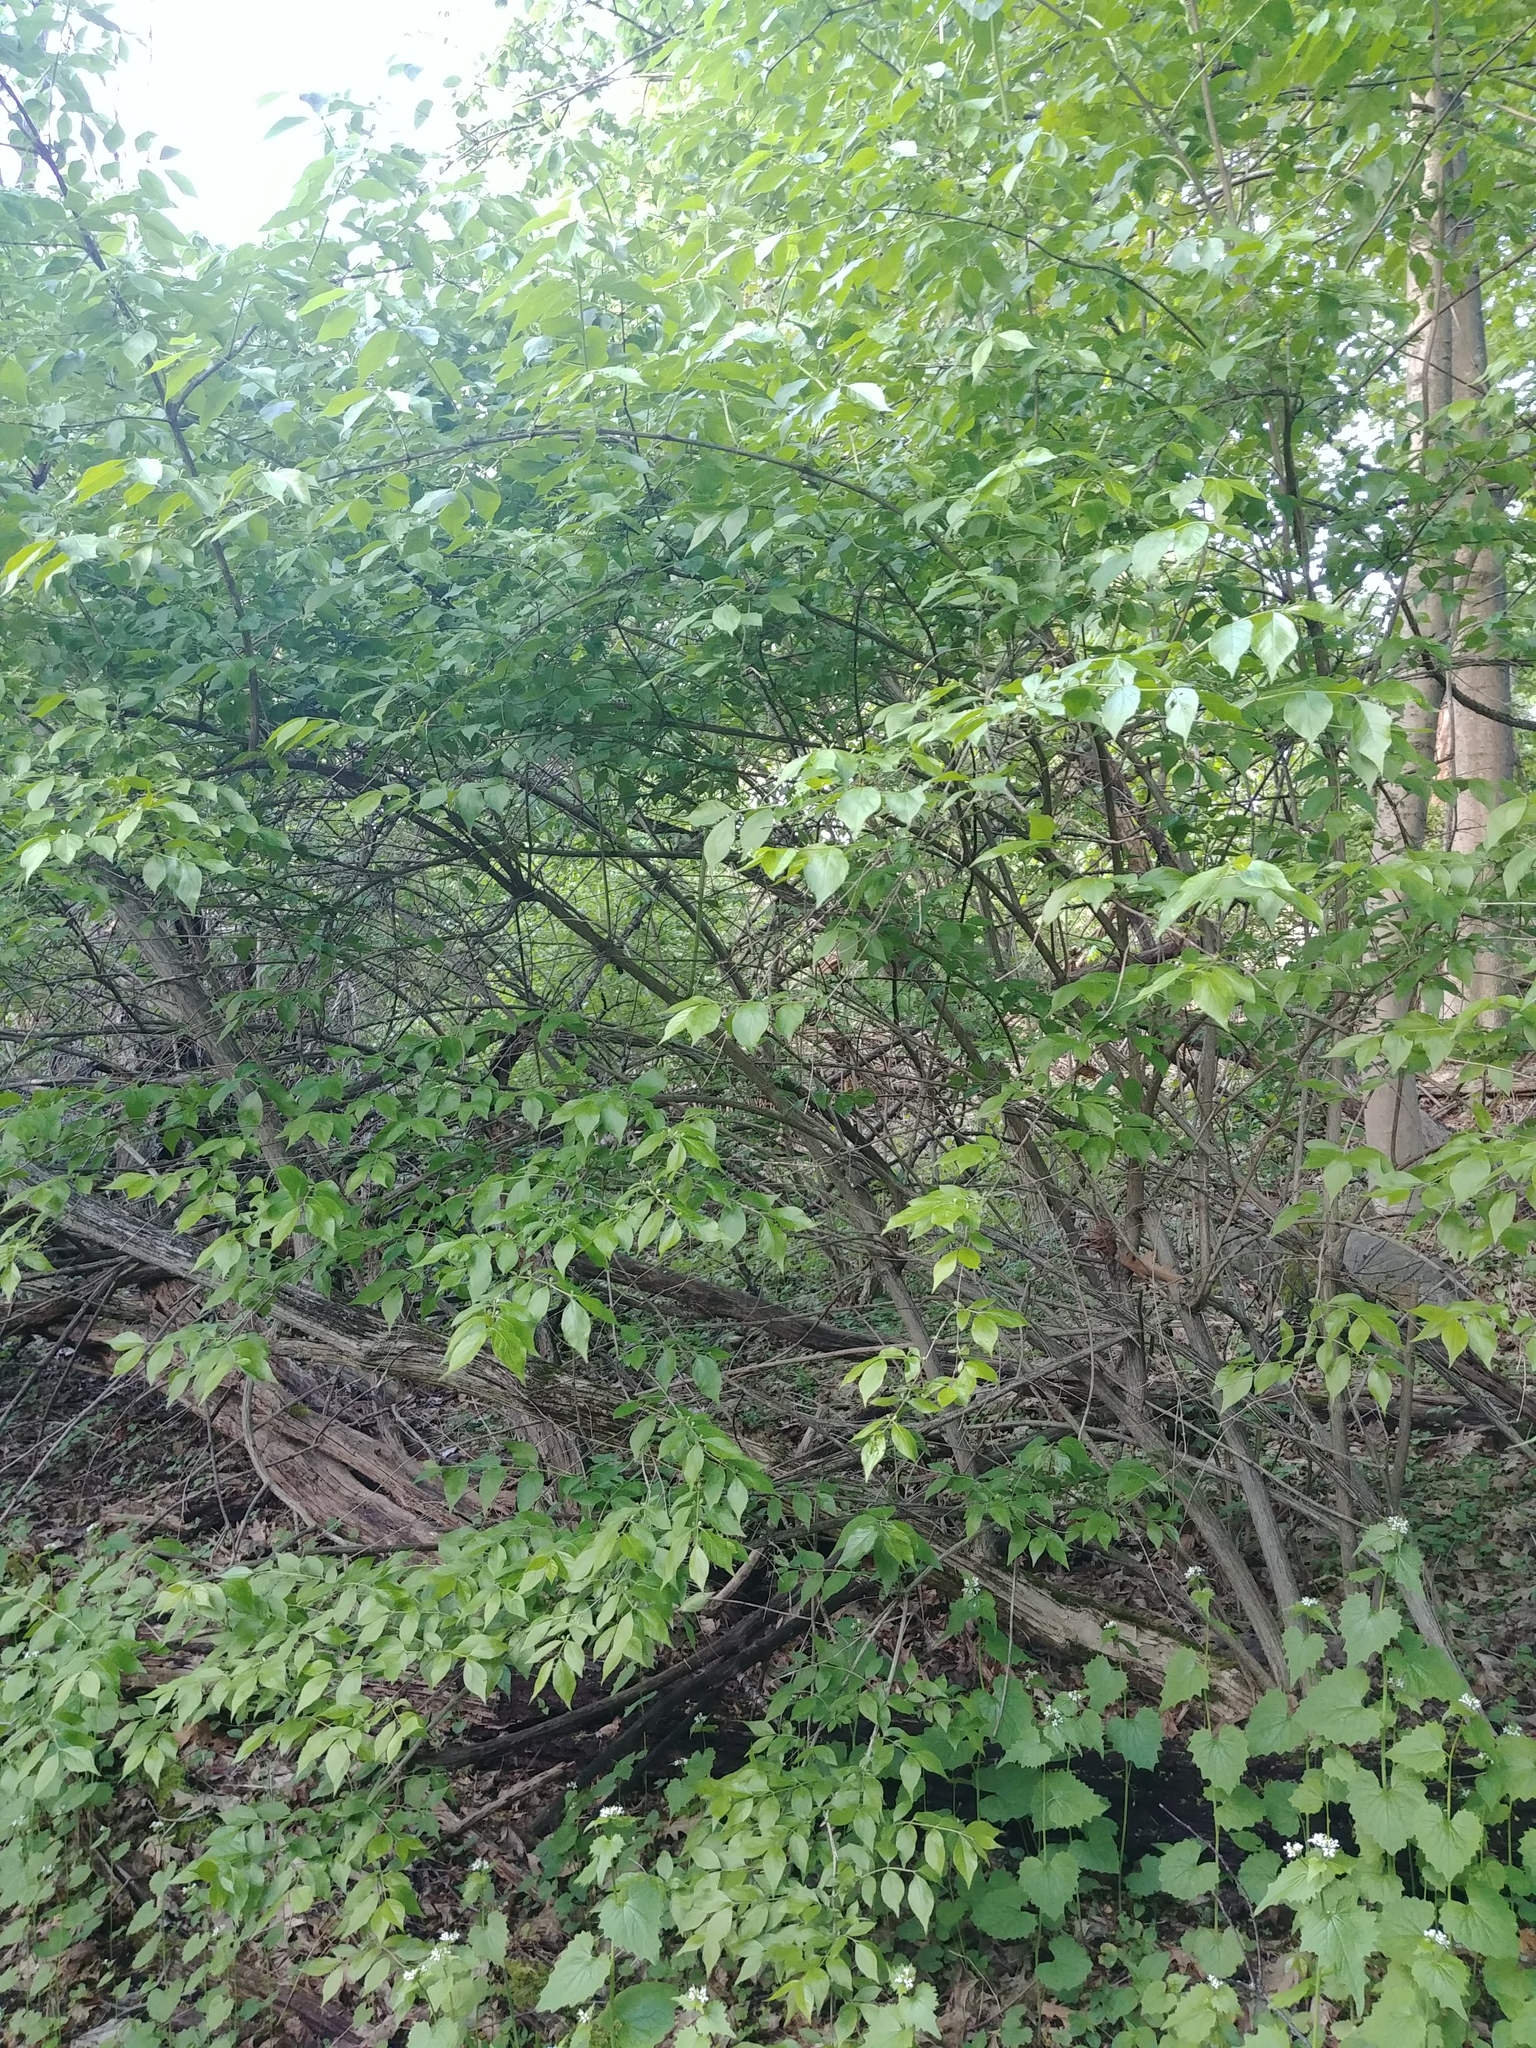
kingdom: Plantae
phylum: Tracheophyta
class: Magnoliopsida
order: Dipsacales
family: Caprifoliaceae
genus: Lonicera
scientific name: Lonicera maackii
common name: Amur honeysuckle
